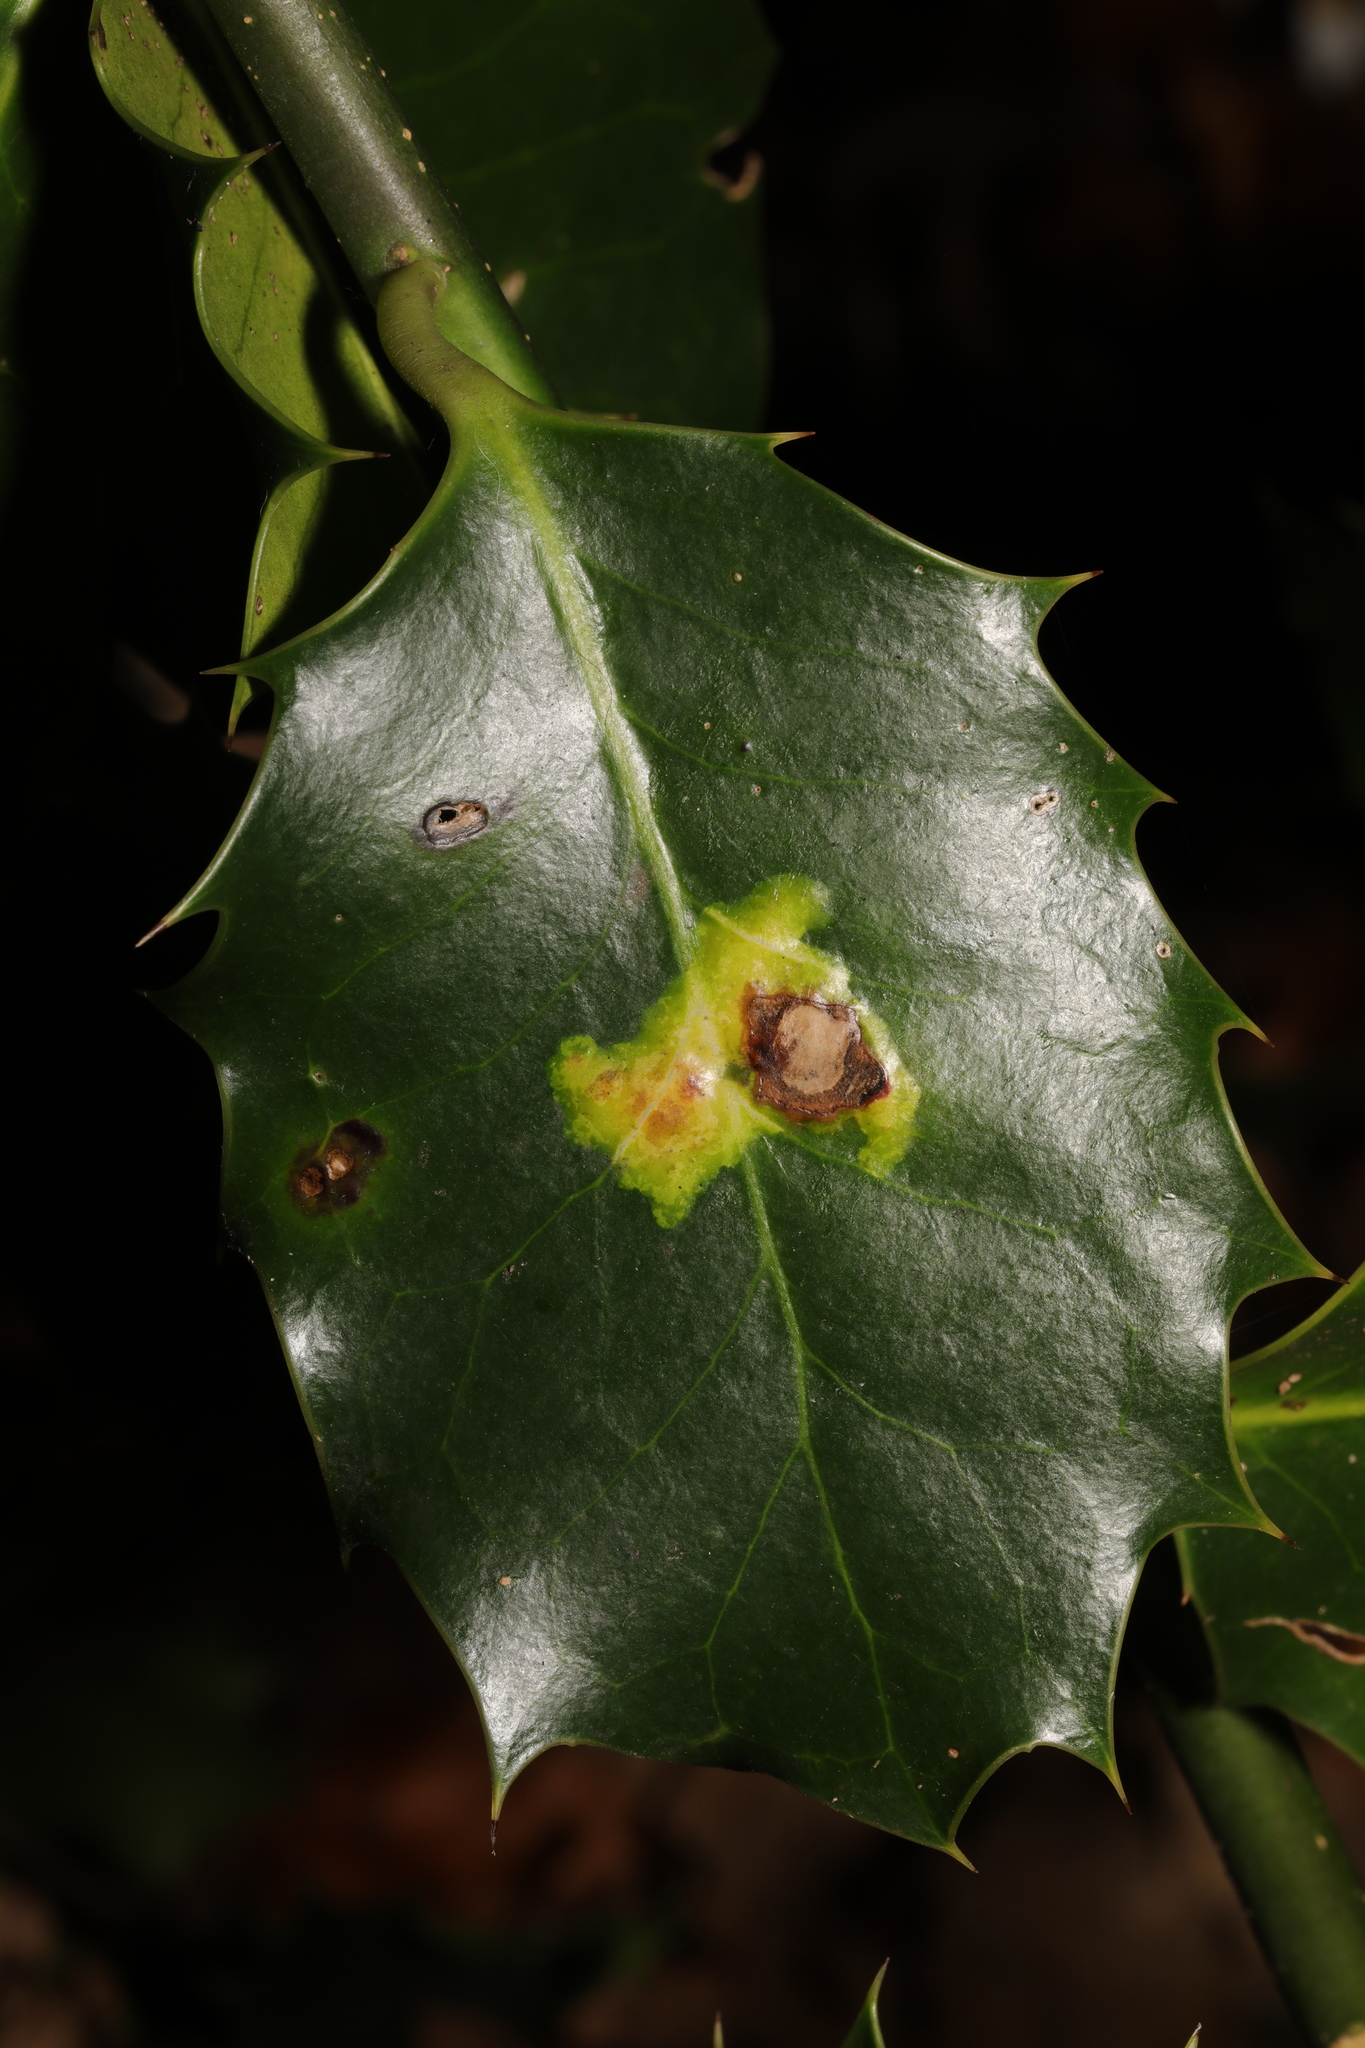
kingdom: Animalia
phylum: Arthropoda
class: Insecta
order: Diptera
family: Agromyzidae
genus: Phytomyza
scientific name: Phytomyza ilicis
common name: Holly leafminer
